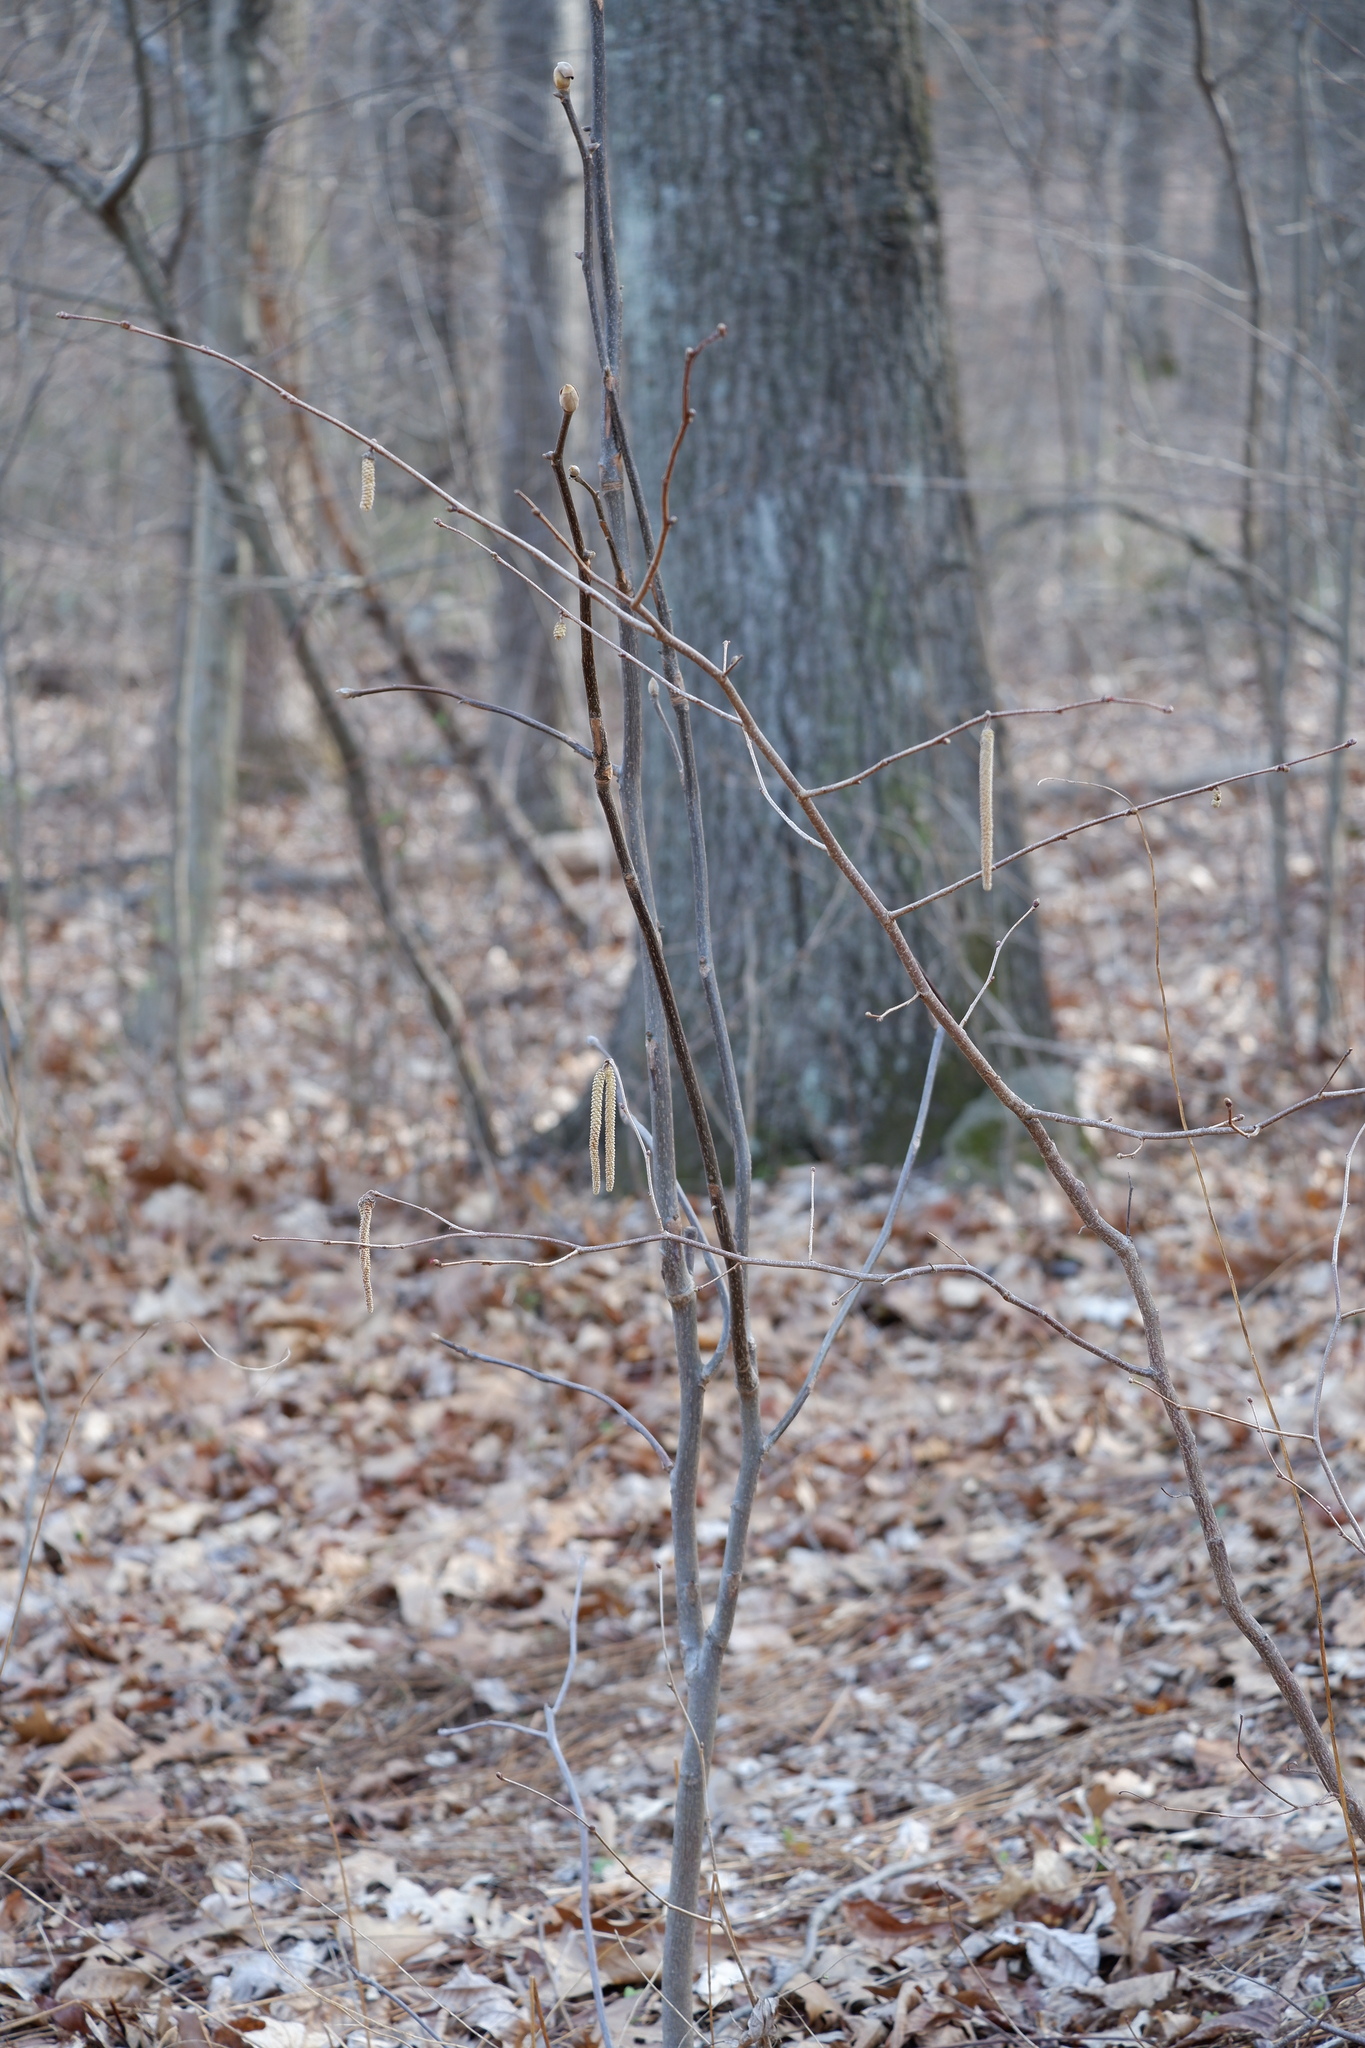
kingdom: Plantae
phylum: Tracheophyta
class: Magnoliopsida
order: Fagales
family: Betulaceae
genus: Corylus
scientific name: Corylus americana
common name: American hazel
